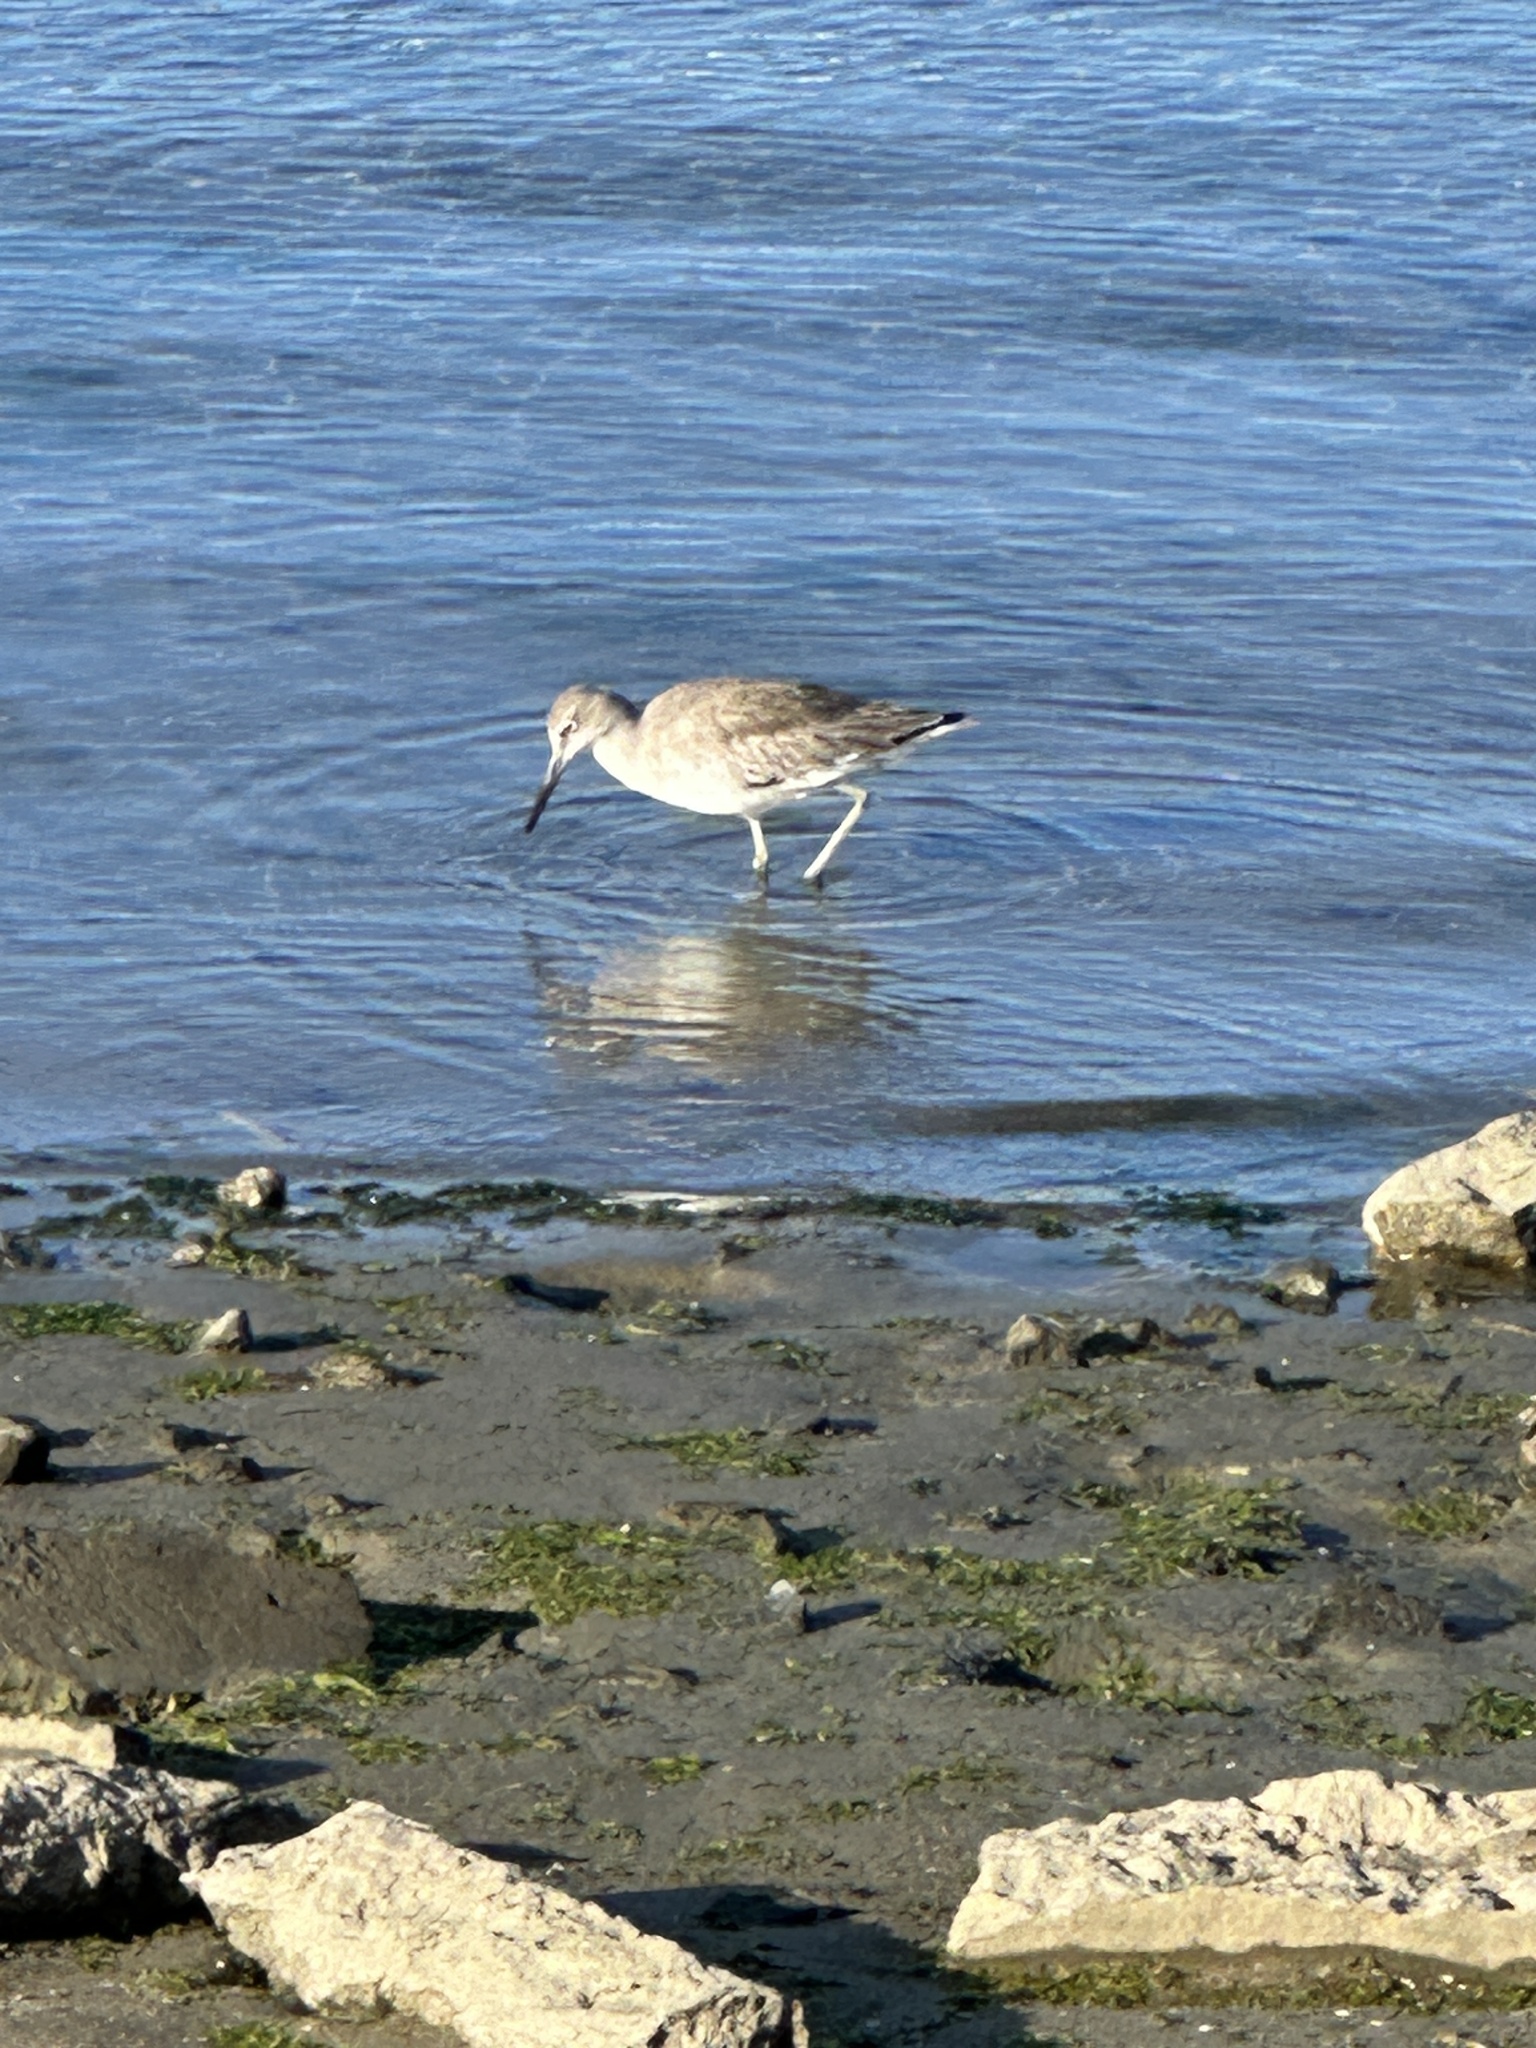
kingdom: Animalia
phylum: Chordata
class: Aves
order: Charadriiformes
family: Scolopacidae
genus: Tringa
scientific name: Tringa semipalmata
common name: Willet
